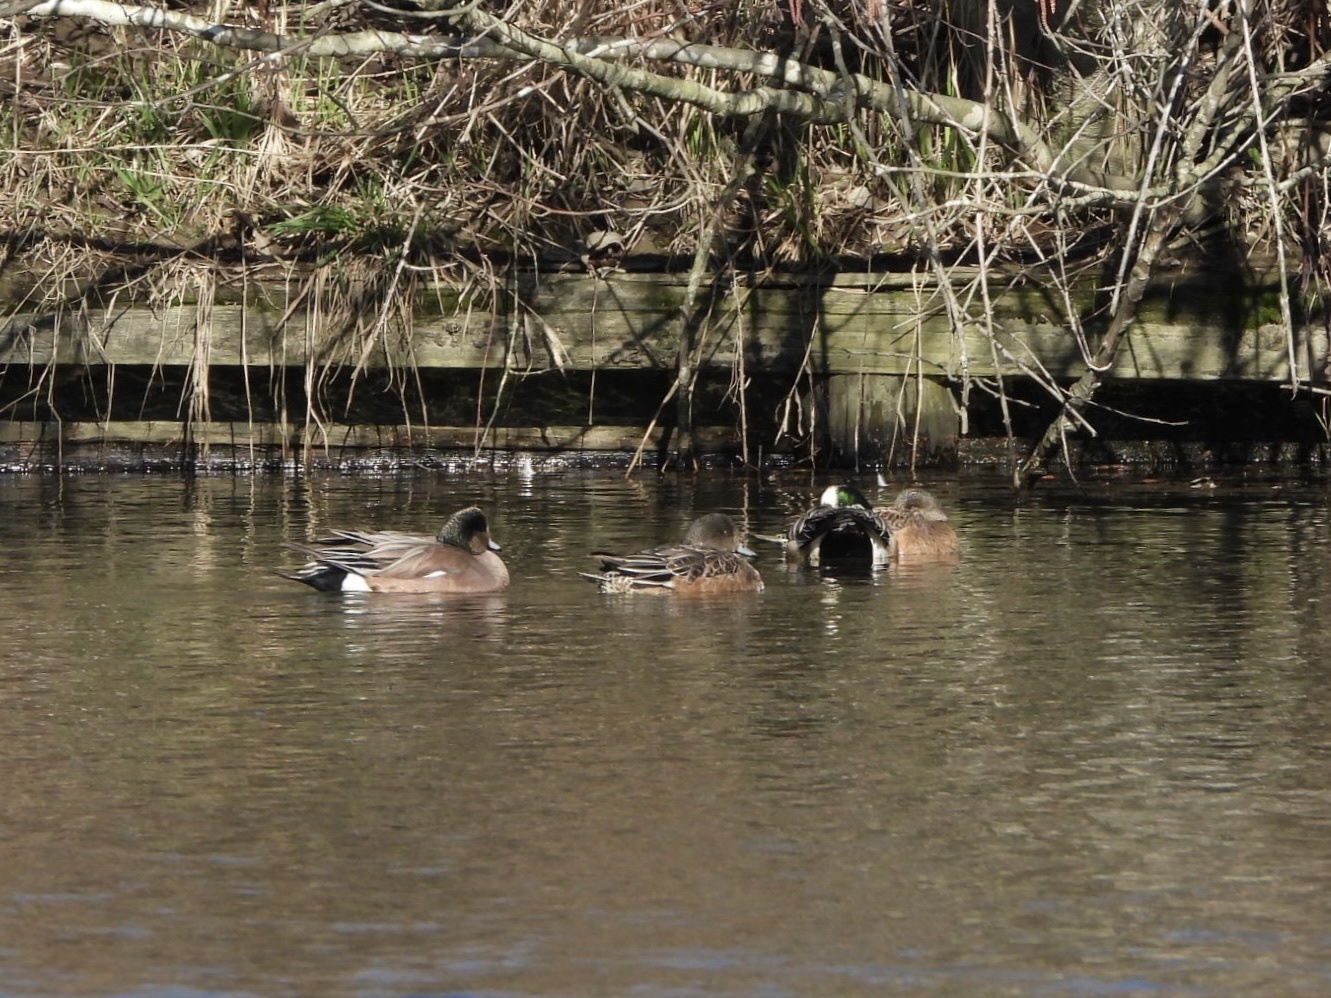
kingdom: Animalia
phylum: Chordata
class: Aves
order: Anseriformes
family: Anatidae
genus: Mareca
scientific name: Mareca americana
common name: American wigeon
